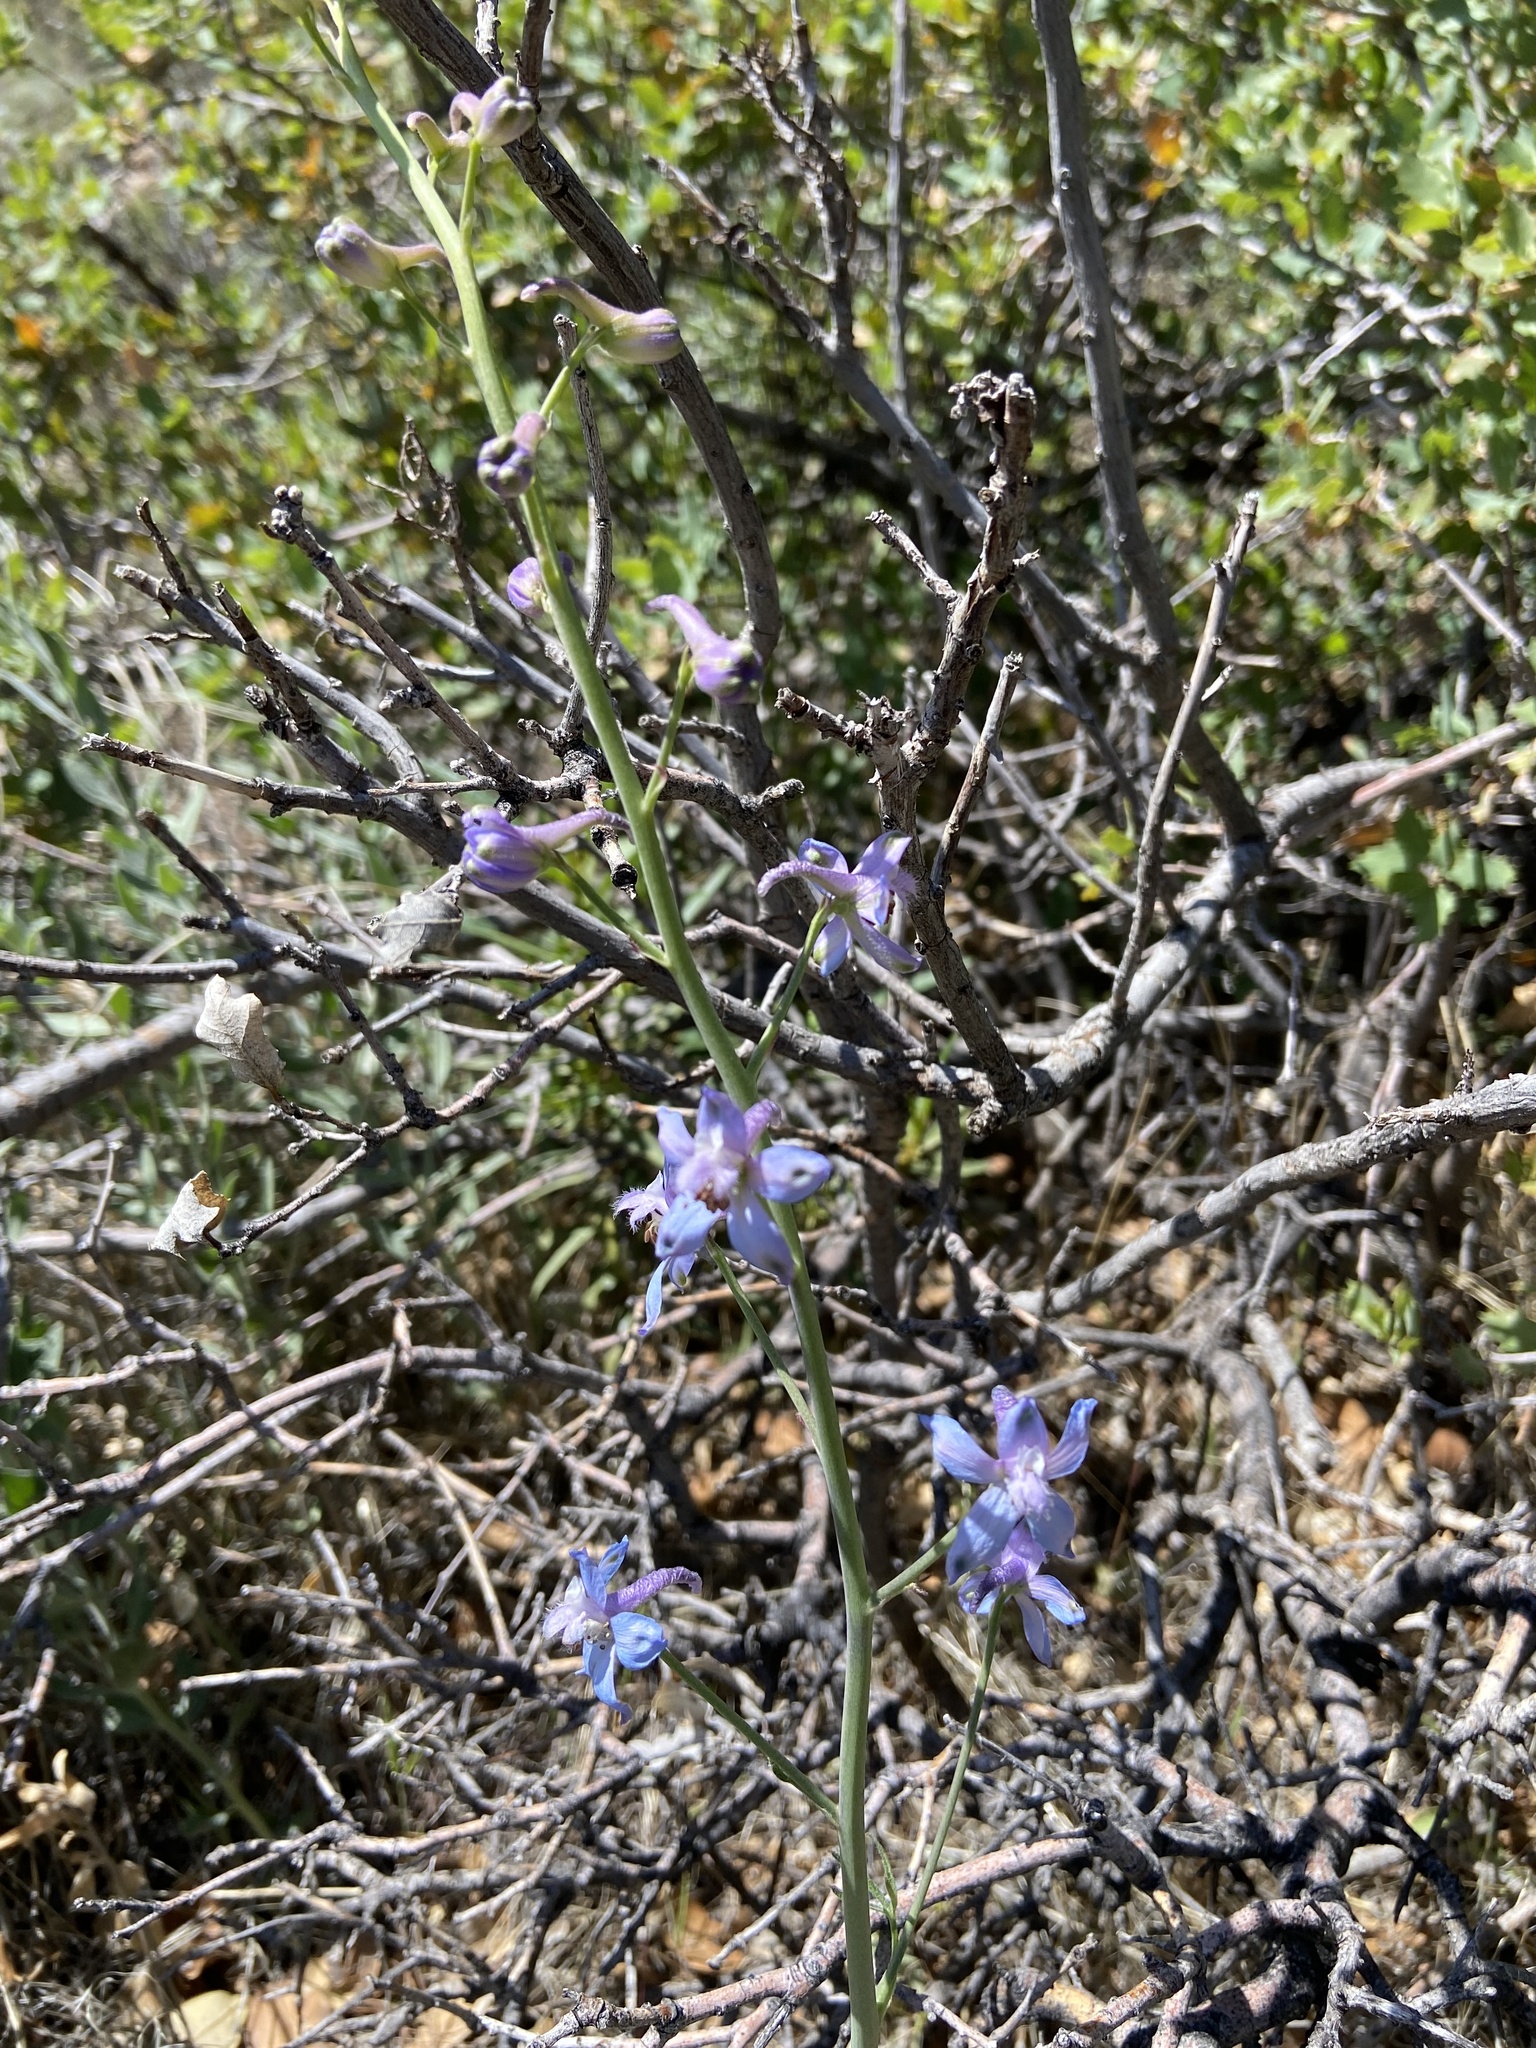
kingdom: Plantae
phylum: Tracheophyta
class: Magnoliopsida
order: Ranunculales
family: Ranunculaceae
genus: Delphinium
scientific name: Delphinium parishii
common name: Apache larkspur
